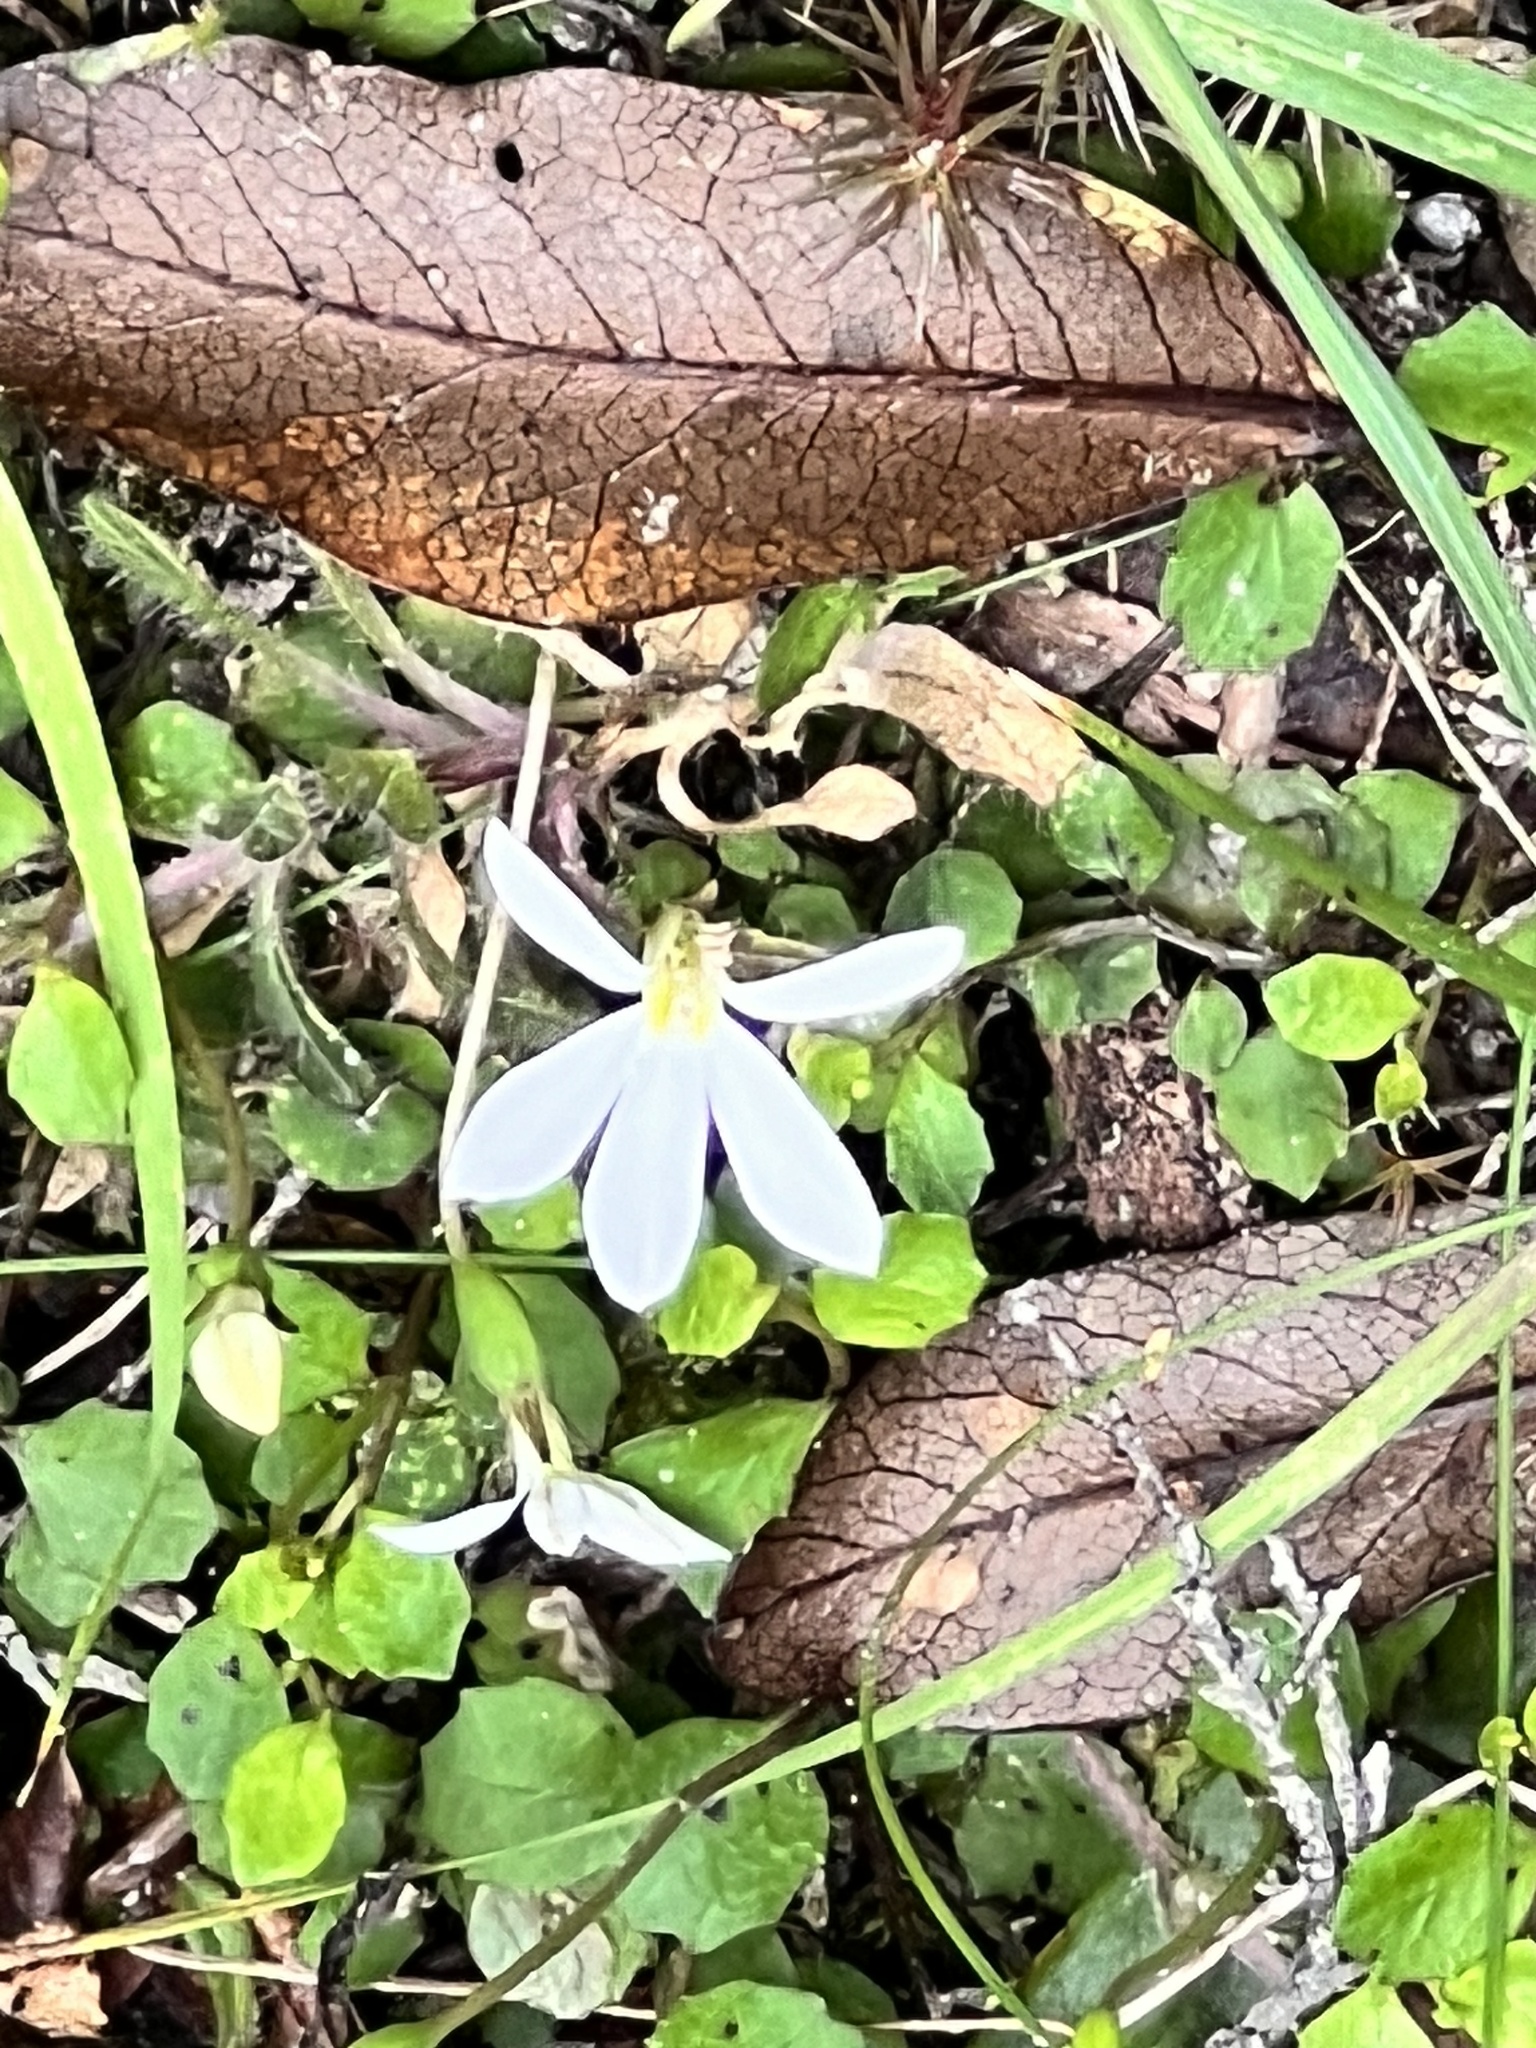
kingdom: Plantae
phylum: Tracheophyta
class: Magnoliopsida
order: Asterales
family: Campanulaceae
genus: Lobelia
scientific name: Lobelia angulata
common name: Lawn lobelia
